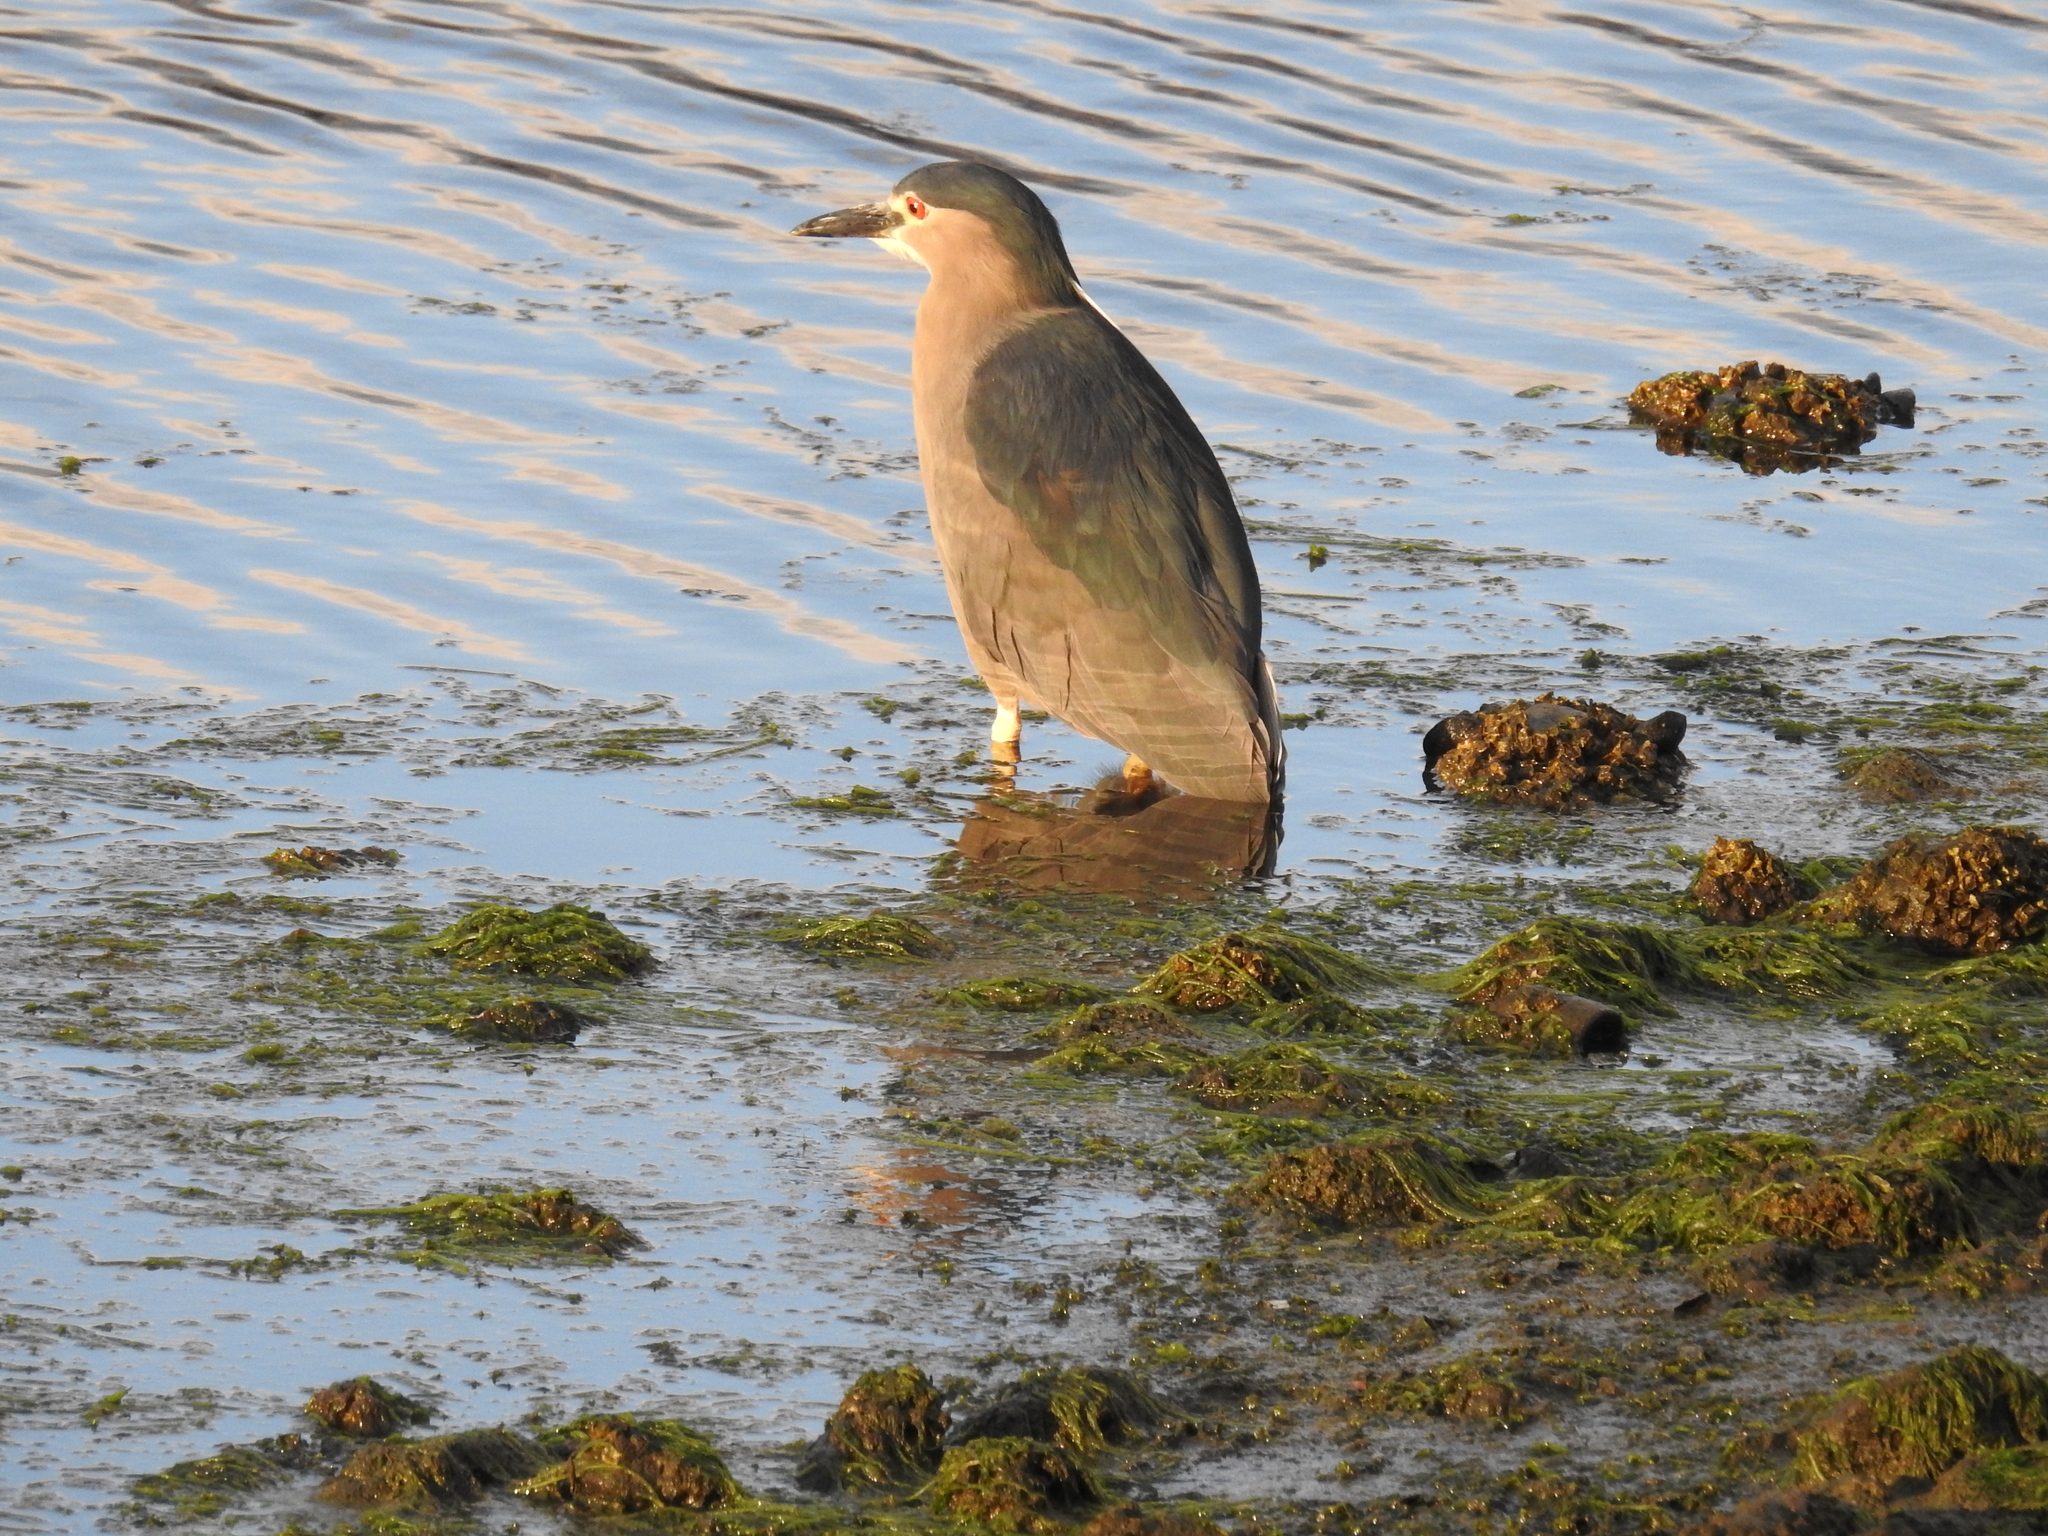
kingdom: Animalia
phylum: Chordata
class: Aves
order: Pelecaniformes
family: Ardeidae
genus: Nycticorax
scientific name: Nycticorax nycticorax
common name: Black-crowned night heron
